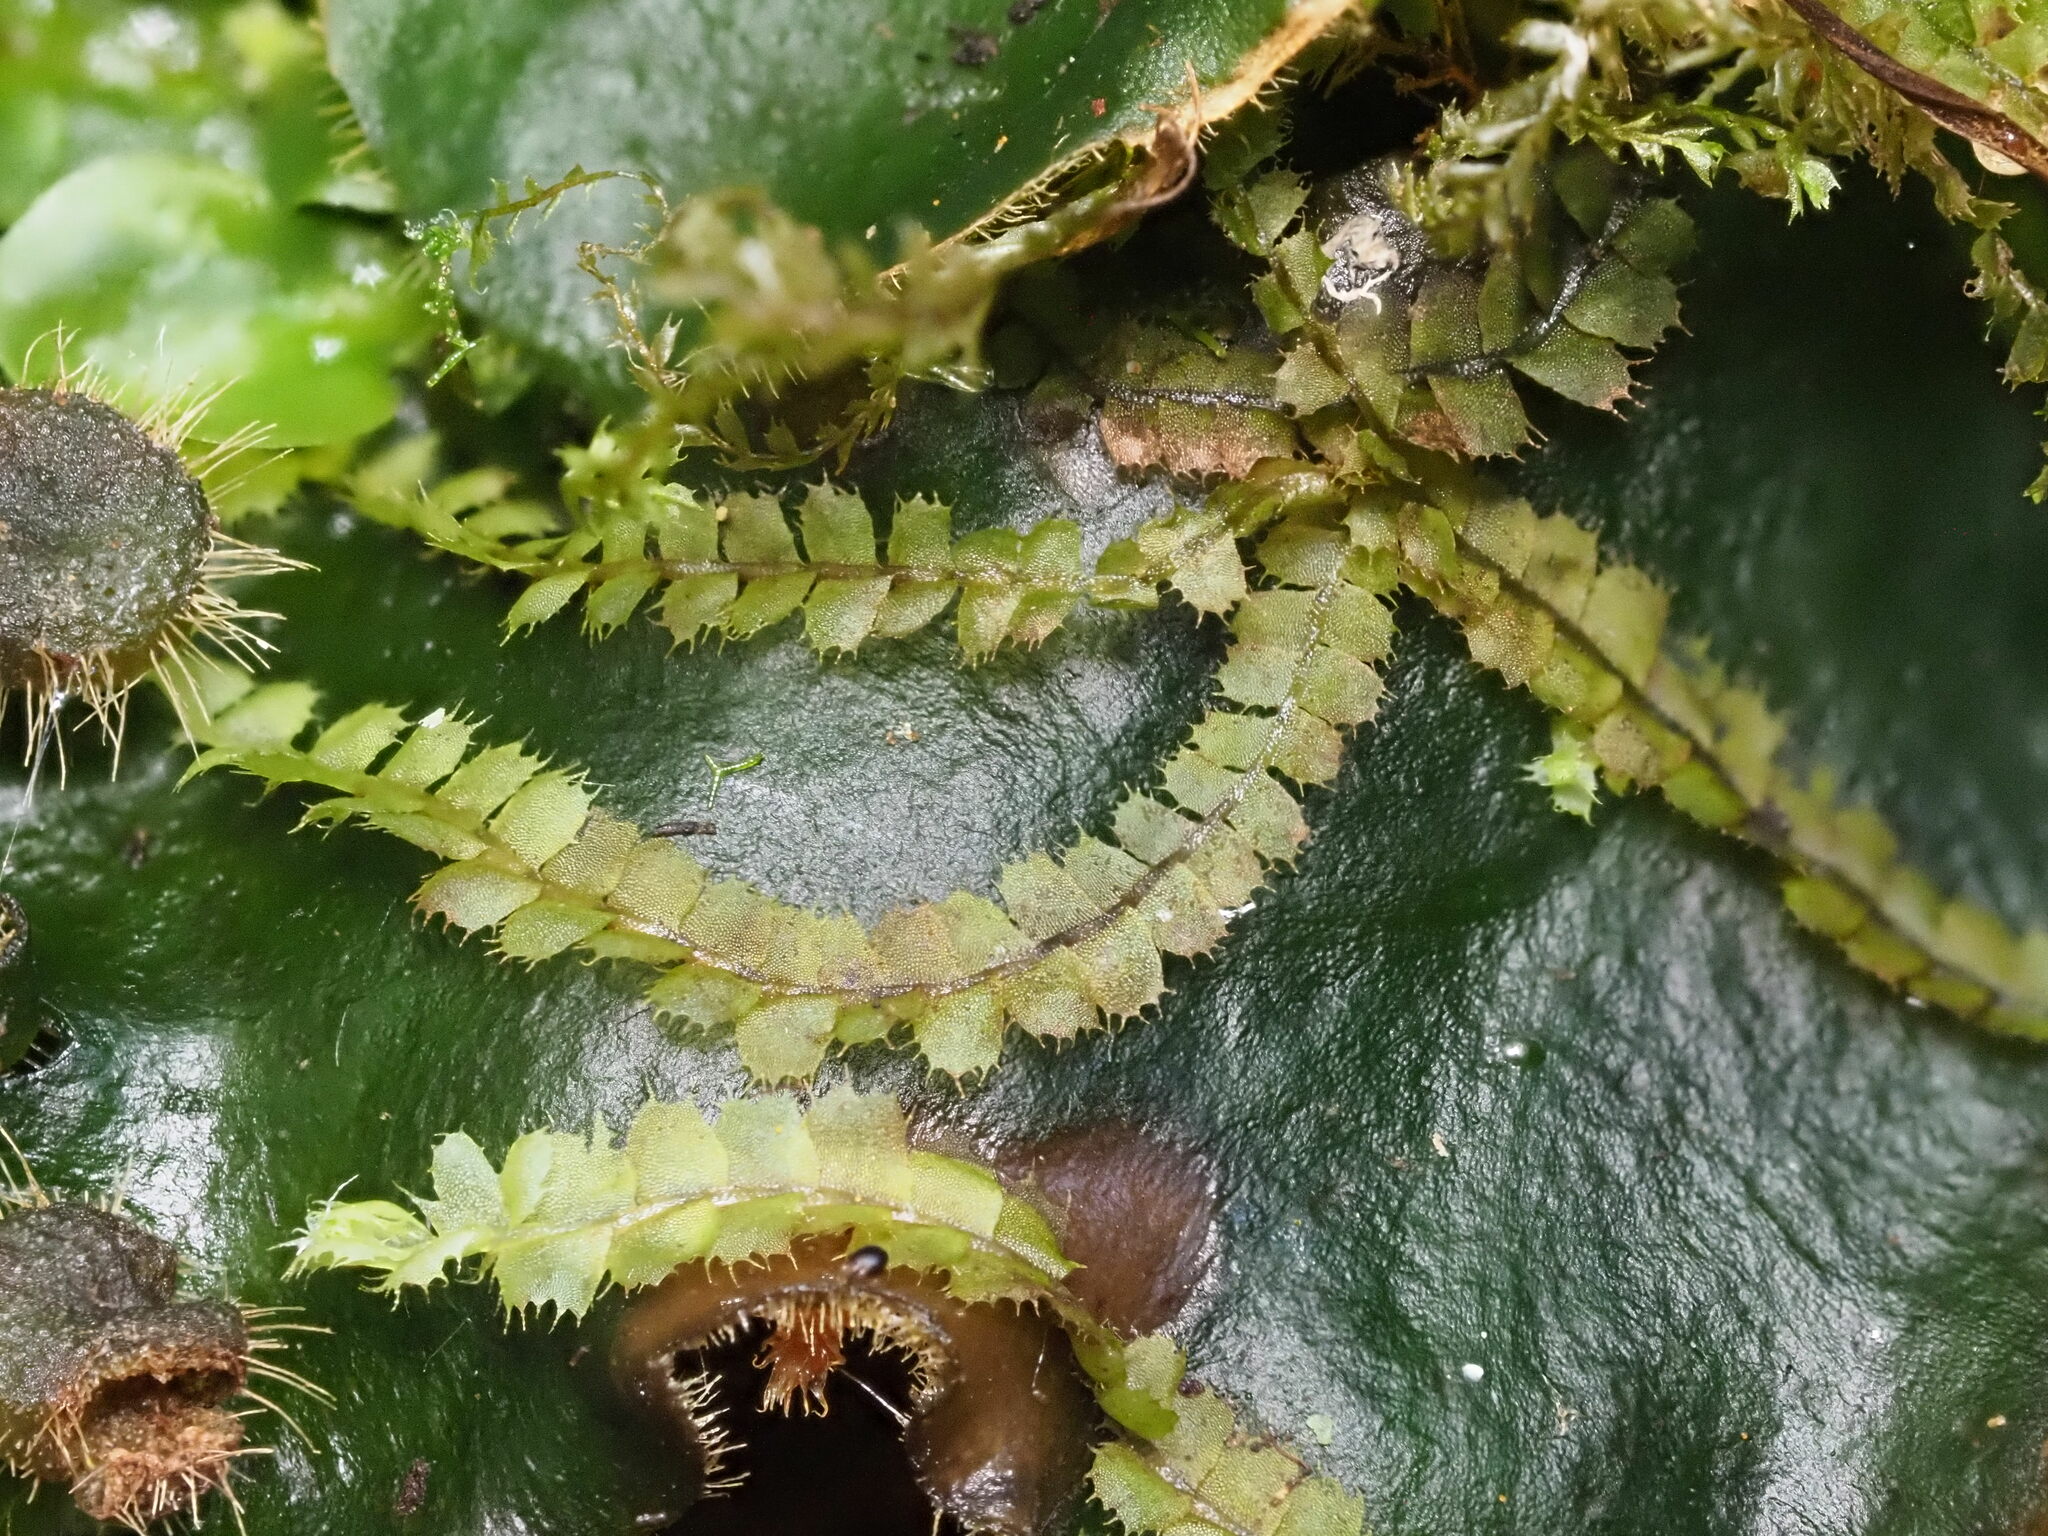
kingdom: Plantae
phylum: Marchantiophyta
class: Jungermanniopsida
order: Jungermanniales
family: Lophocoleaceae
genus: Leptoscyphus
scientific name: Leptoscyphus
